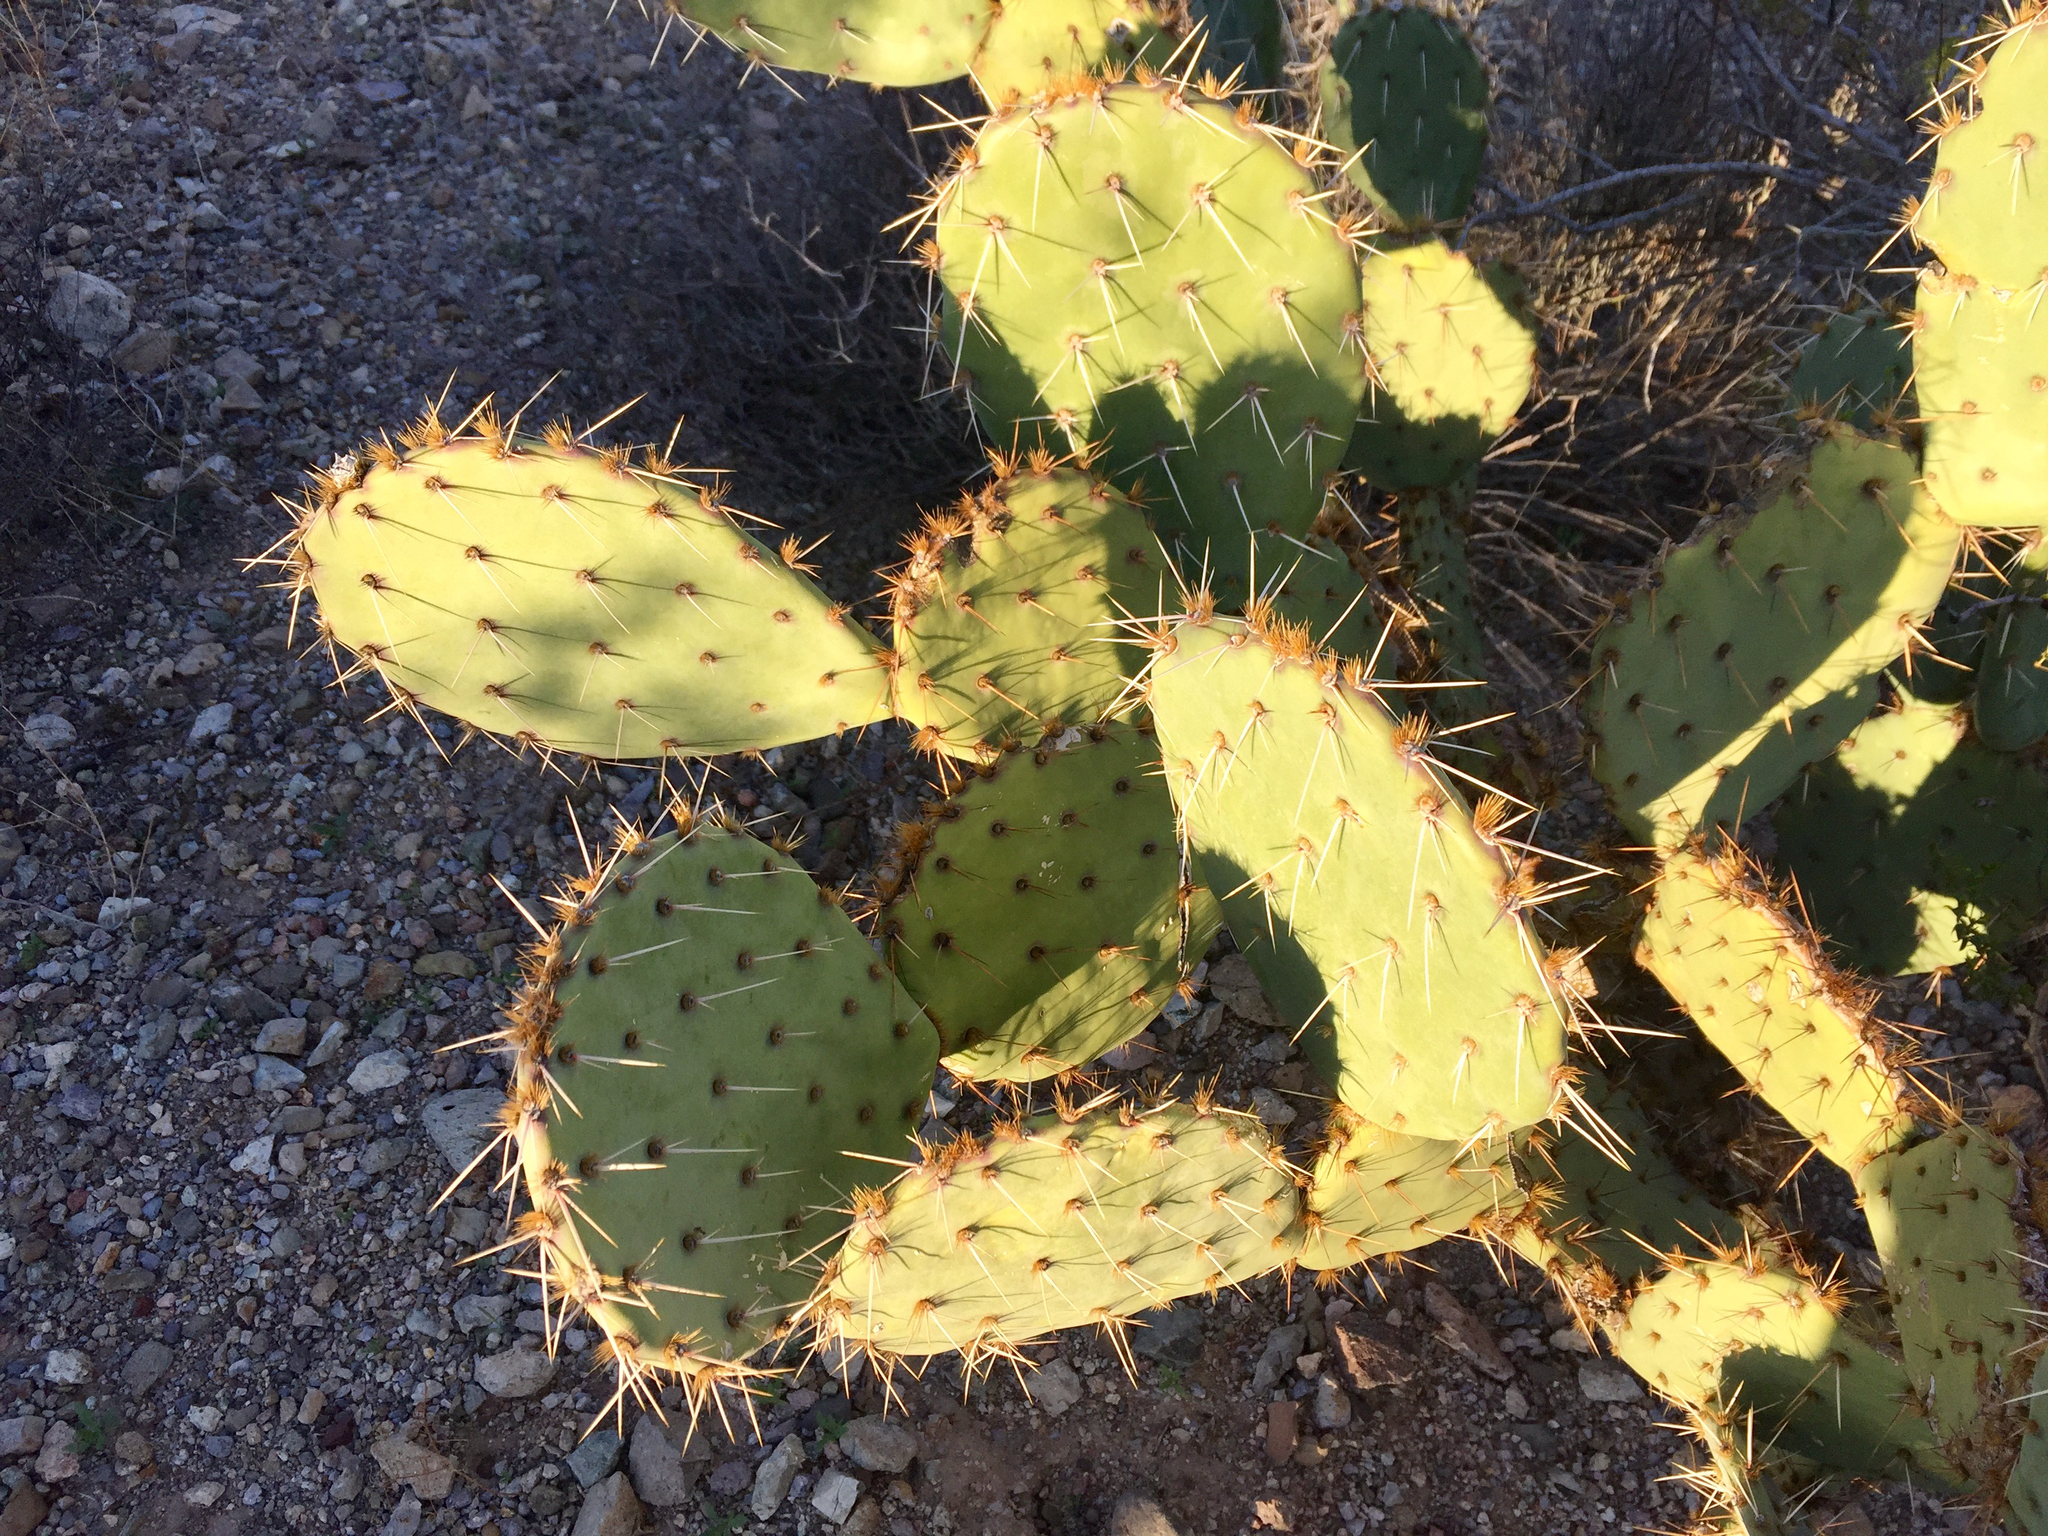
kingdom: Plantae
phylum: Tracheophyta
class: Magnoliopsida
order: Caryophyllales
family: Cactaceae
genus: Opuntia
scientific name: Opuntia engelmannii
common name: Cactus-apple
